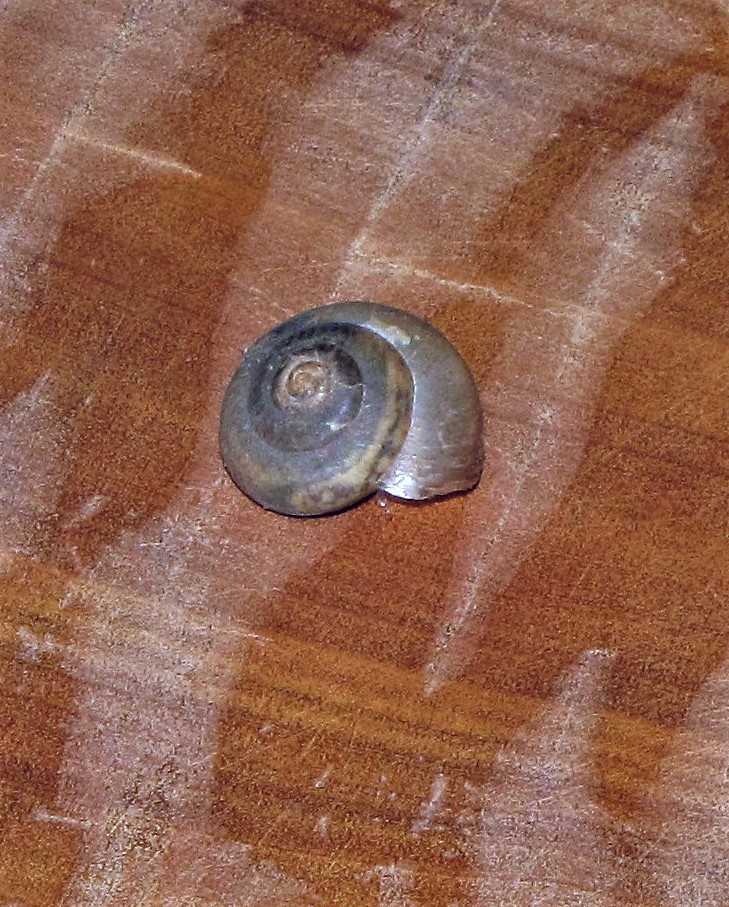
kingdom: Animalia
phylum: Mollusca
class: Gastropoda
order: Stylommatophora
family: Camaenidae
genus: Bradybaena
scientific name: Bradybaena similaris
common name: Asian trampsnail
